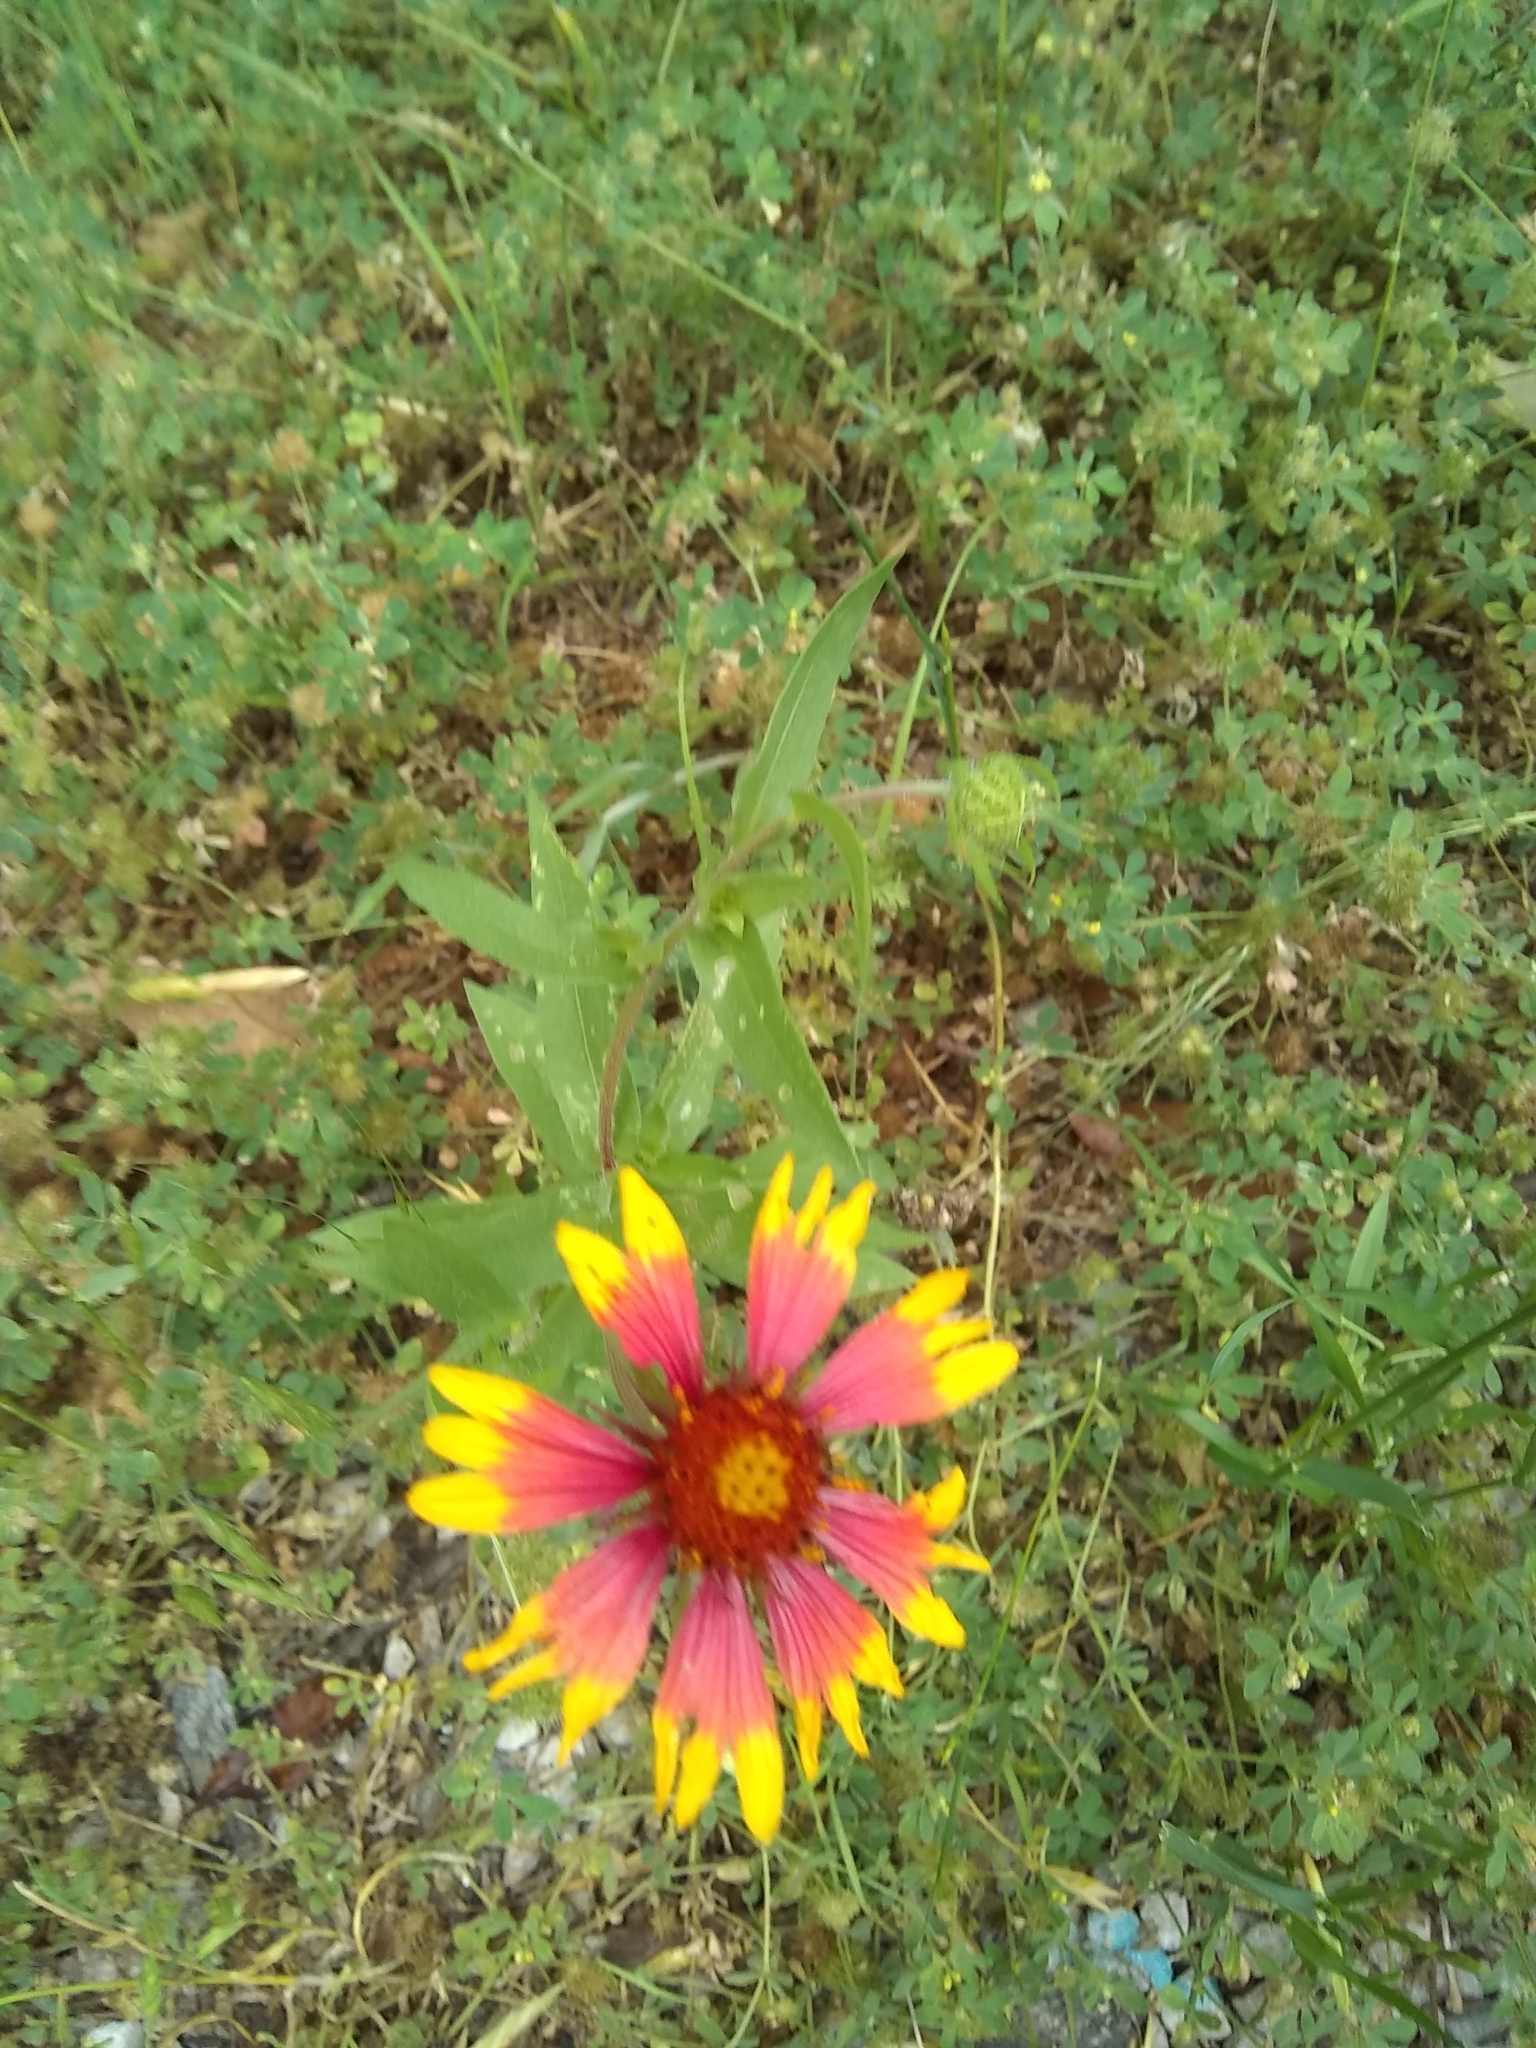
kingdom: Plantae
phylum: Tracheophyta
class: Magnoliopsida
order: Asterales
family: Asteraceae
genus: Gaillardia
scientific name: Gaillardia pulchella
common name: Firewheel
